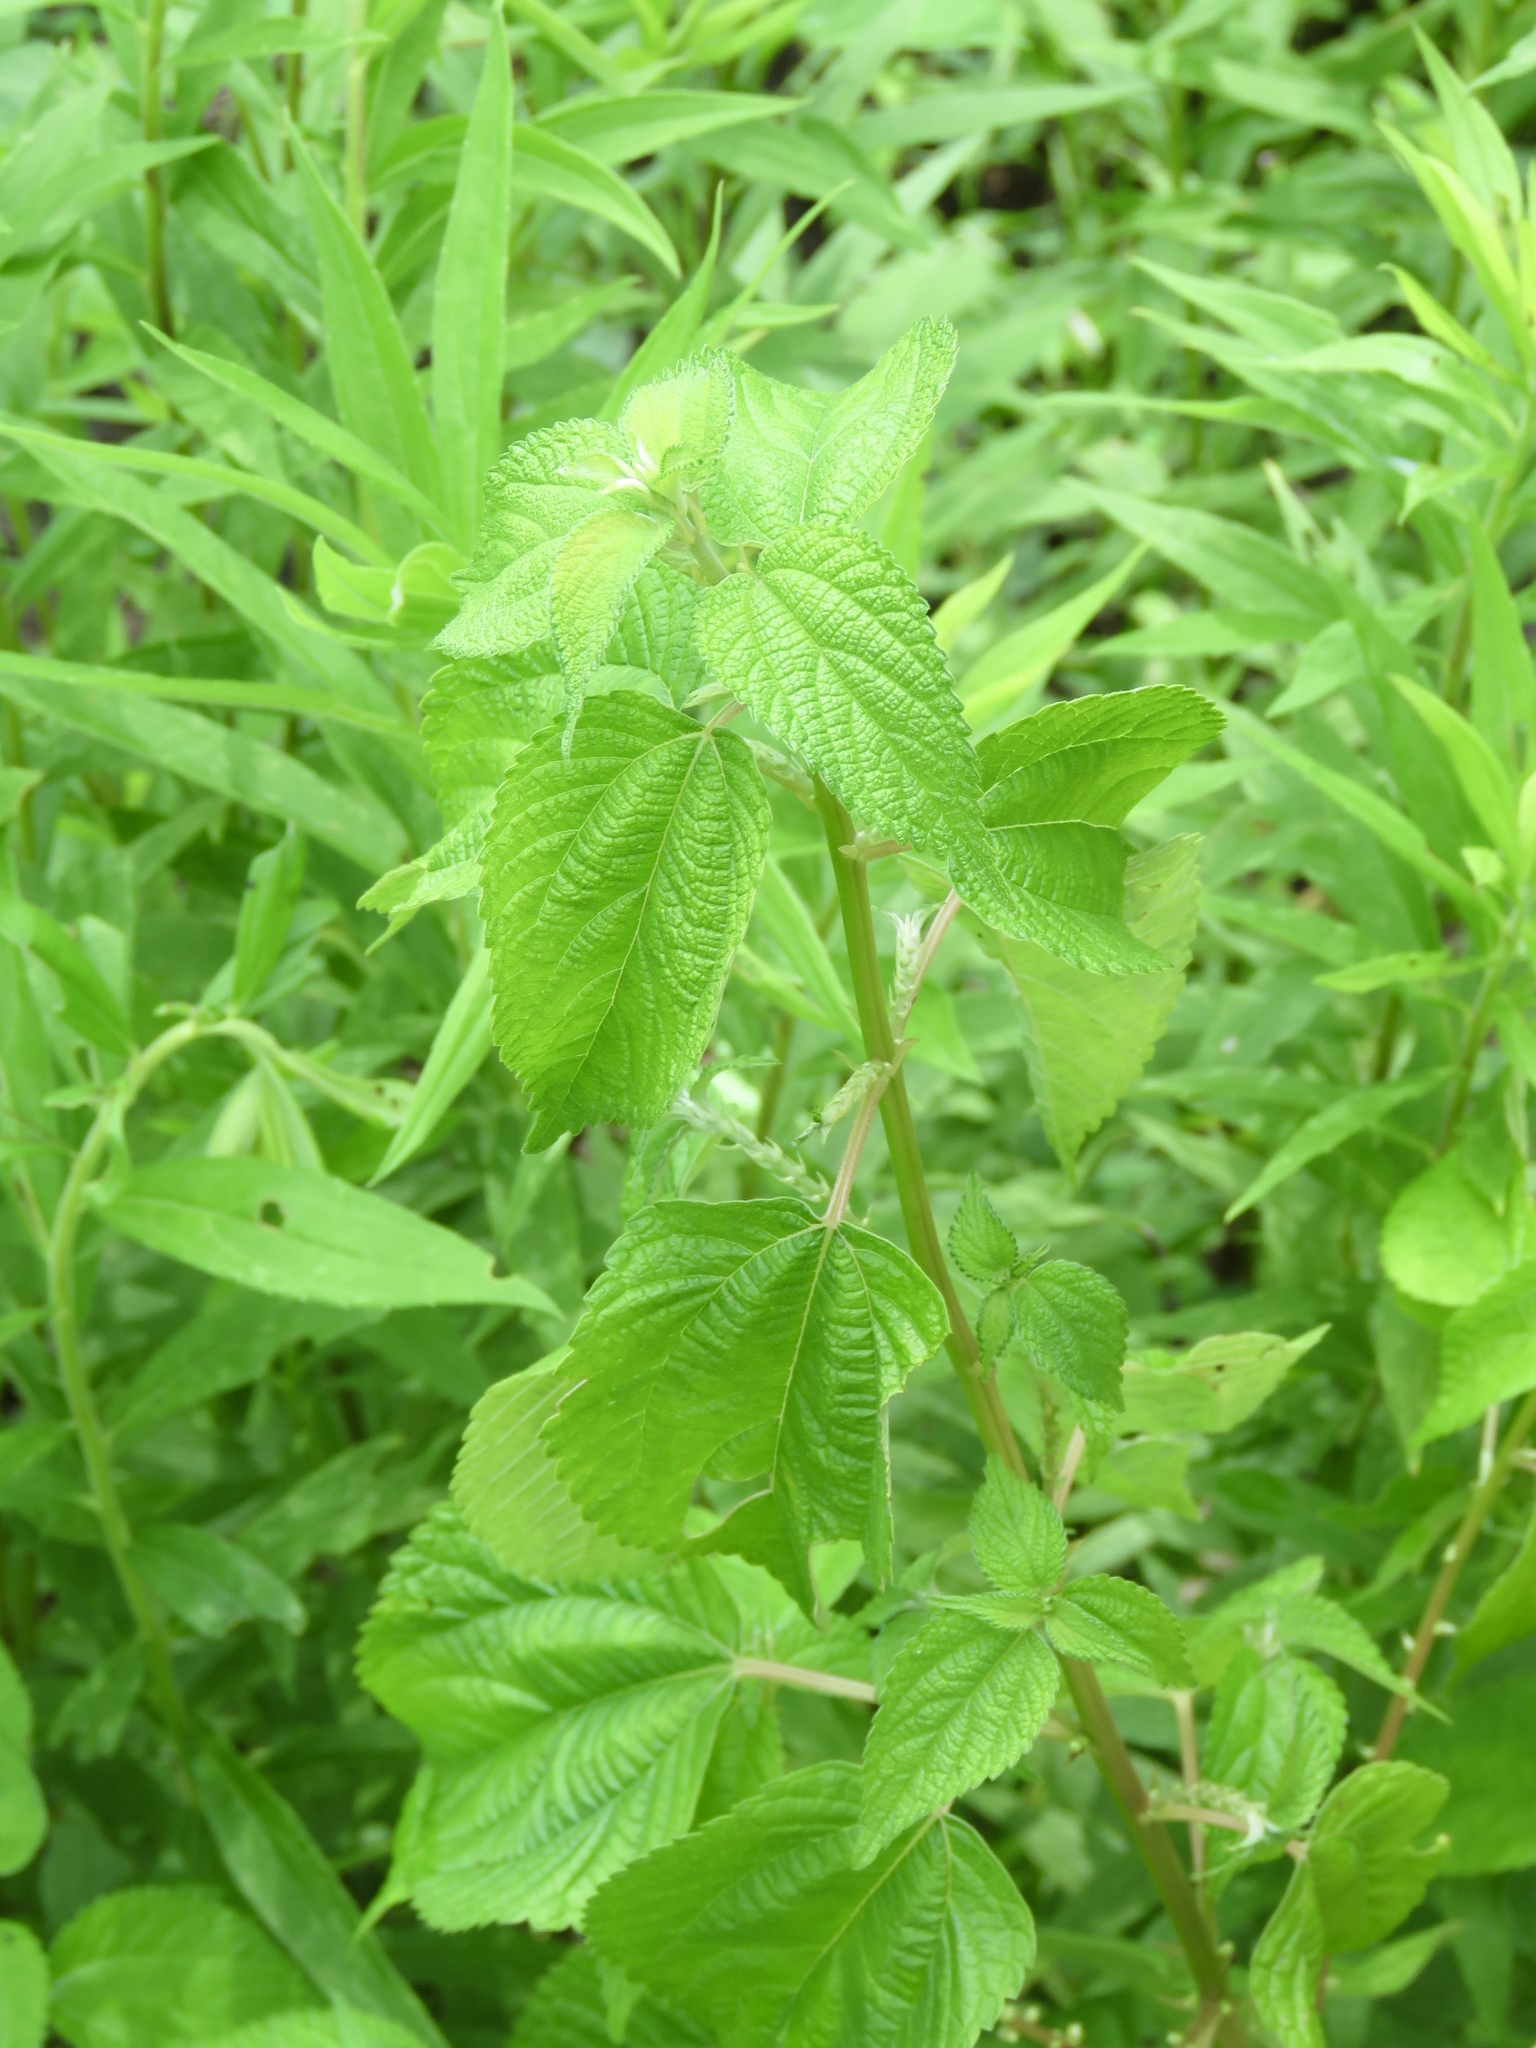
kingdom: Plantae
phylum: Tracheophyta
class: Magnoliopsida
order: Rosales
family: Urticaceae
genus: Boehmeria
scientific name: Boehmeria cylindrica
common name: Bog-hemp
